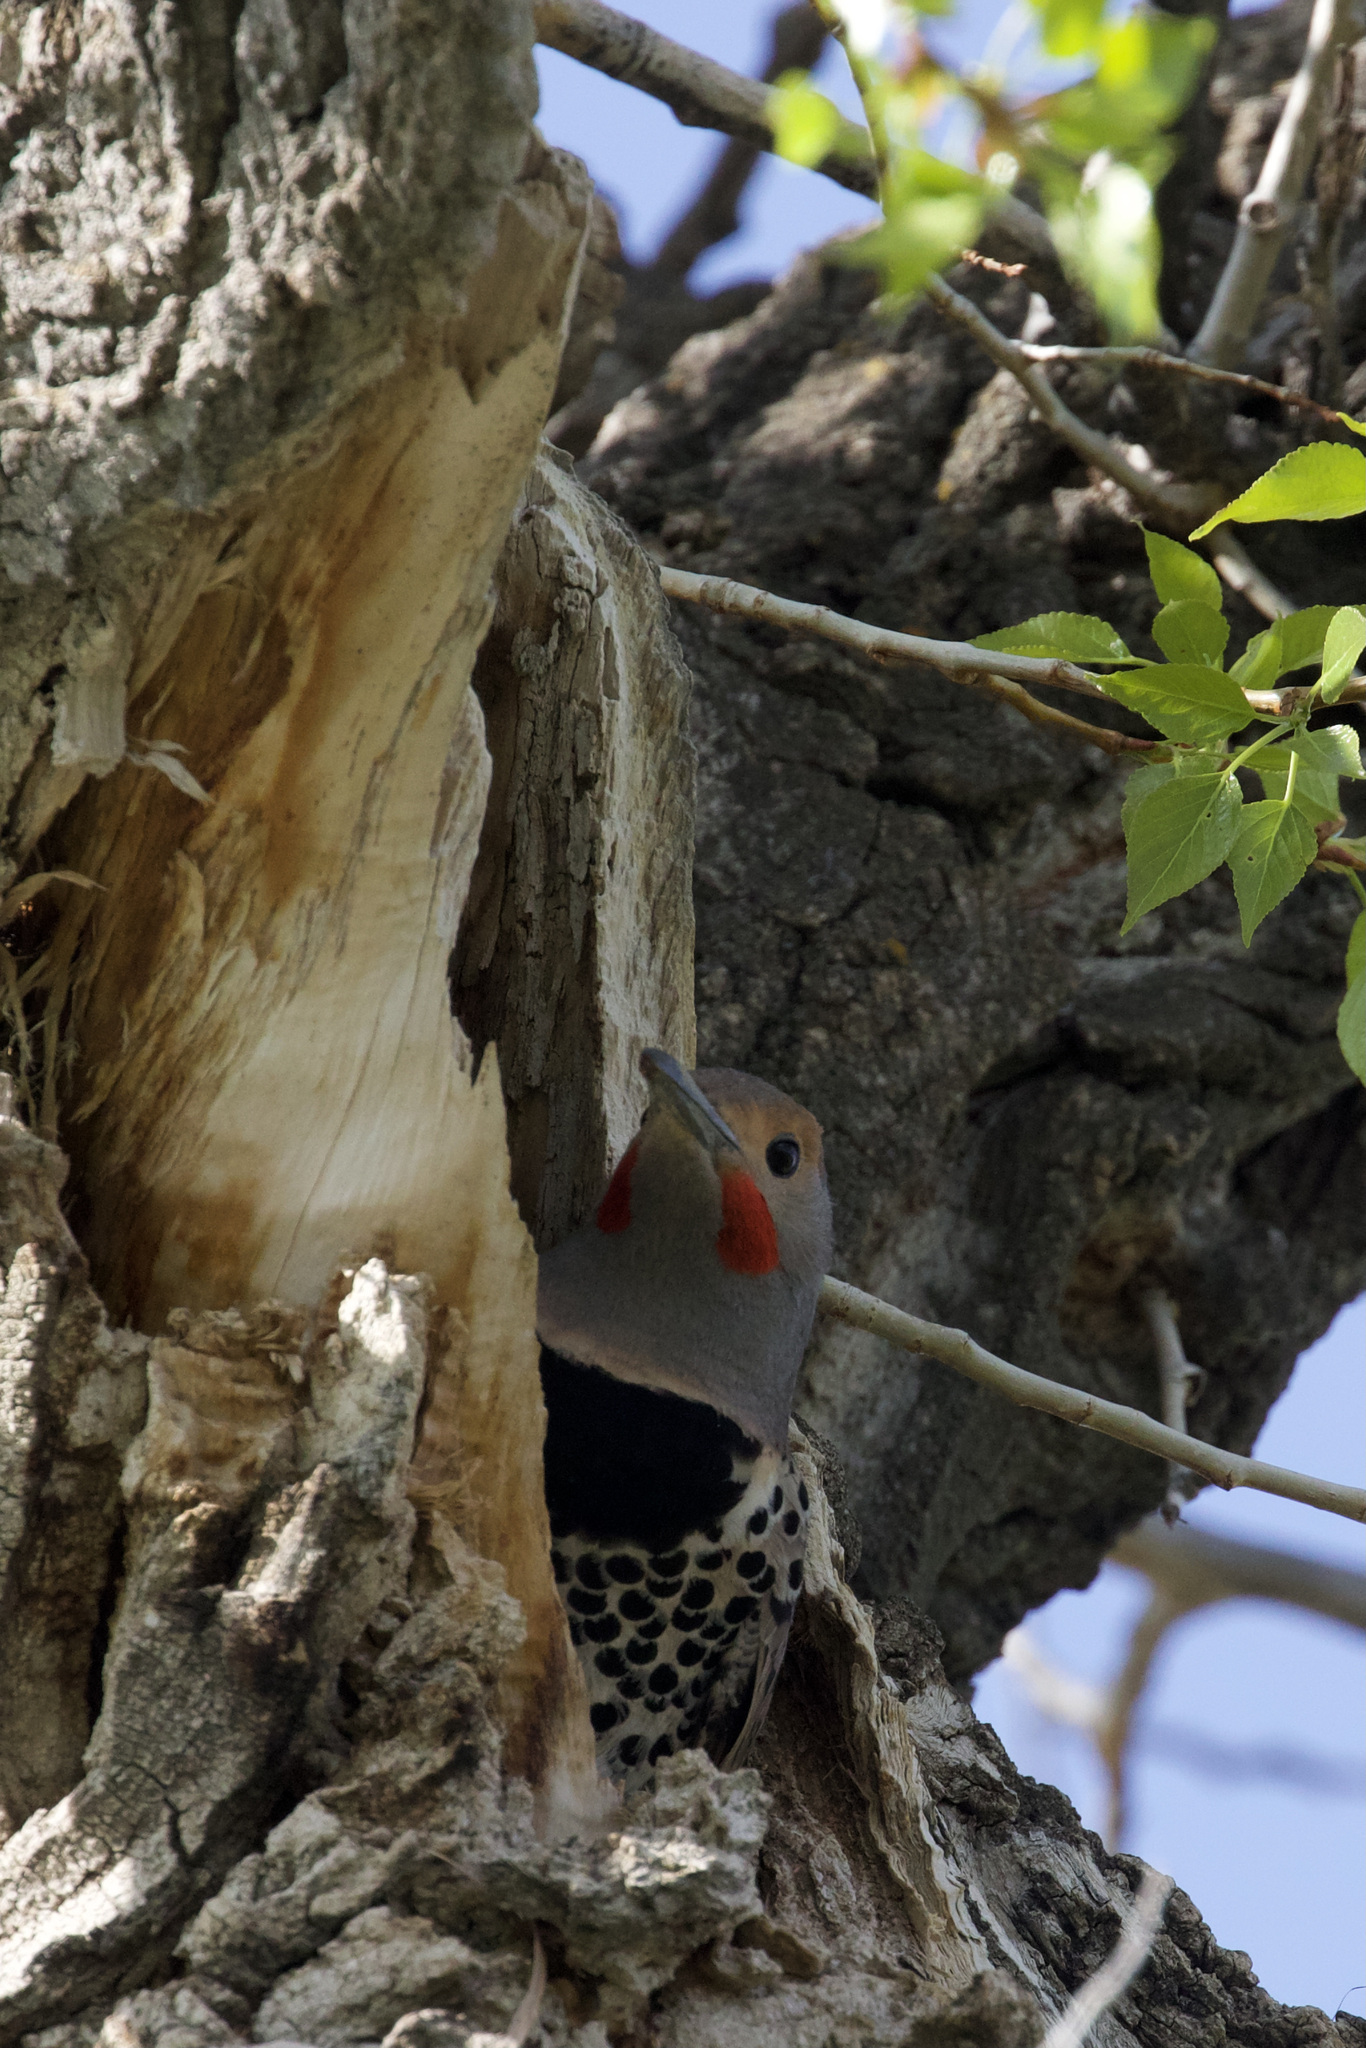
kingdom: Animalia
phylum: Chordata
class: Aves
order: Piciformes
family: Picidae
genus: Colaptes
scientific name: Colaptes auratus
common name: Northern flicker
